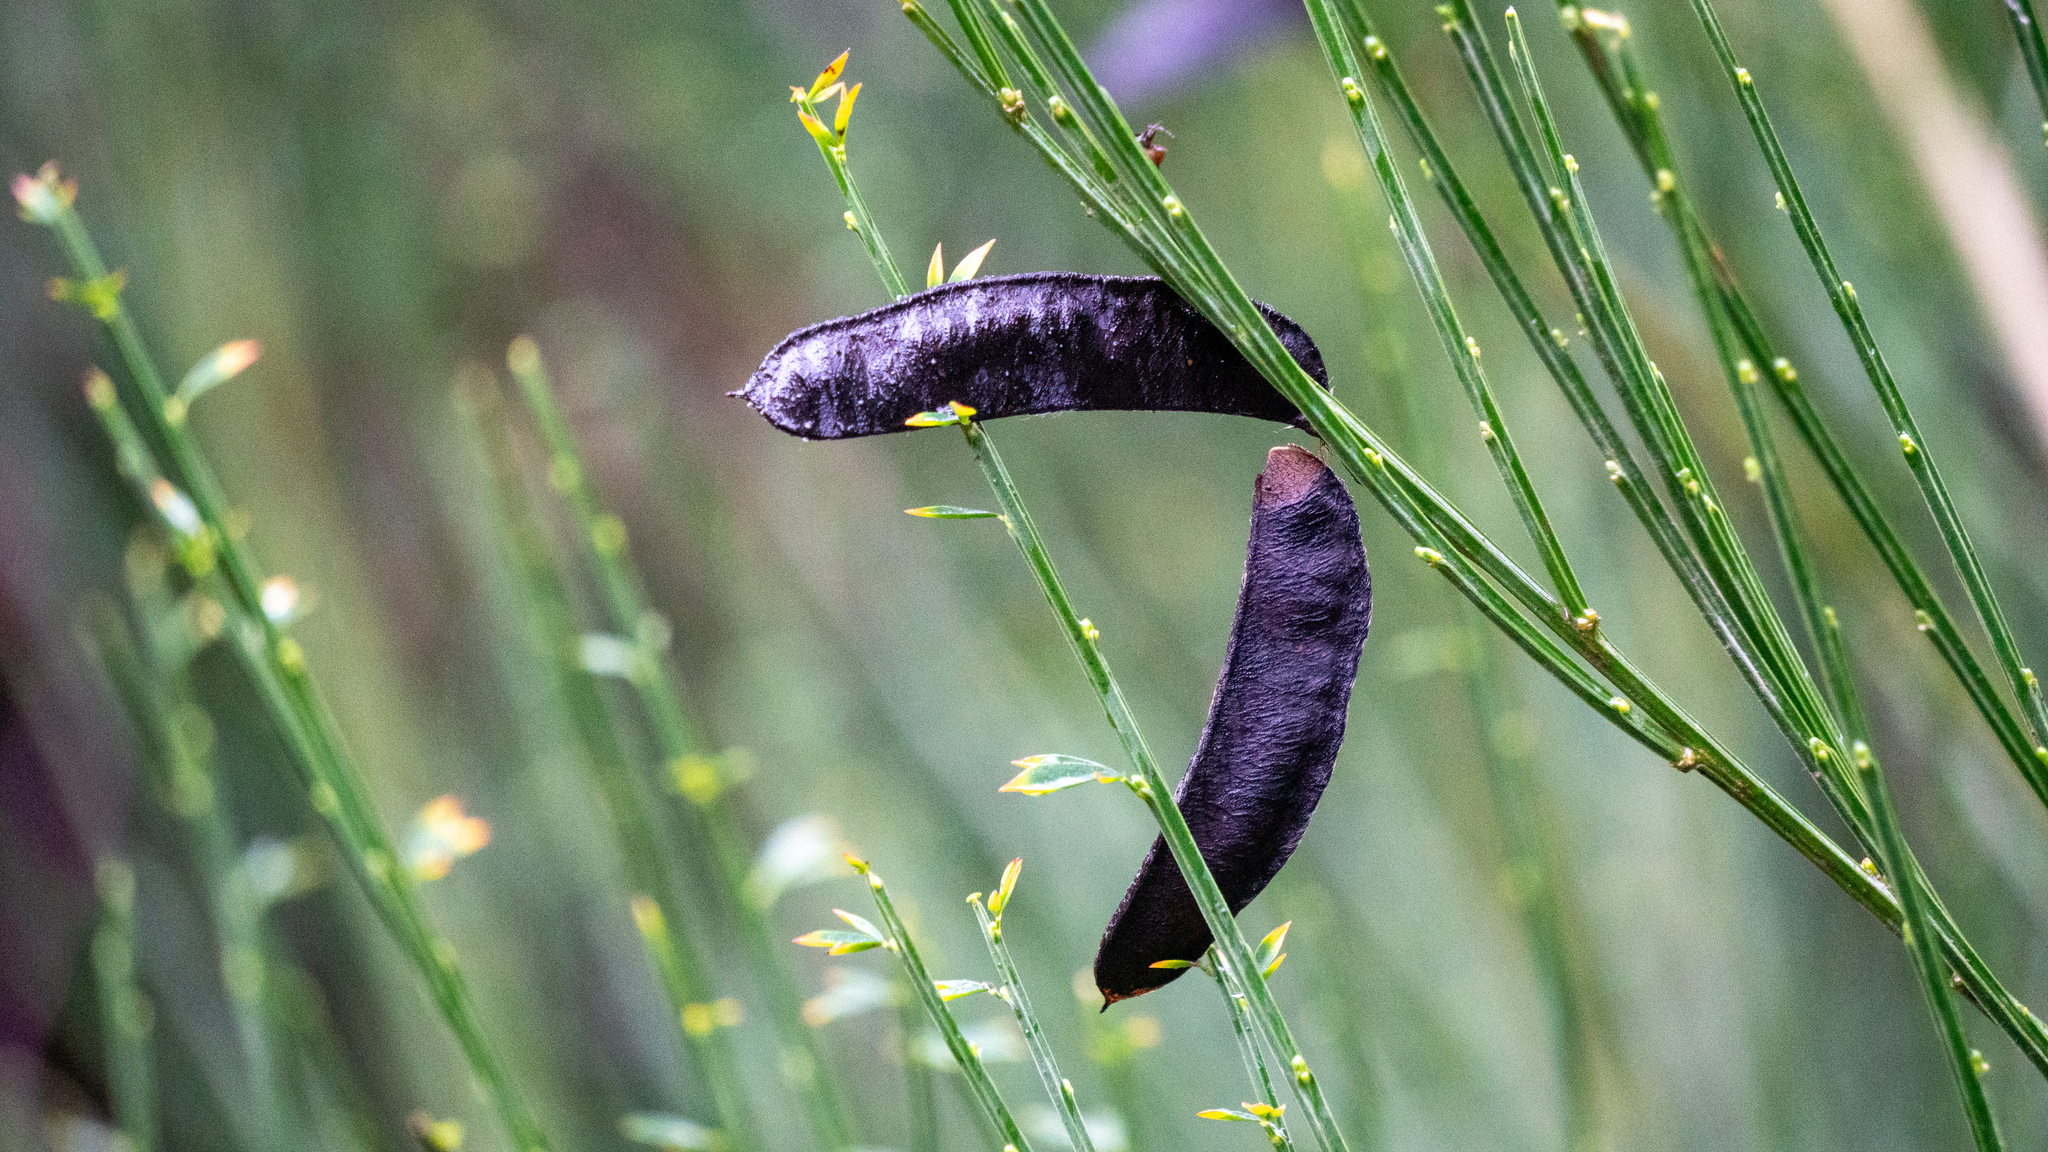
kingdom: Plantae
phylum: Tracheophyta
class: Magnoliopsida
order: Fabales
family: Fabaceae
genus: Cytisus
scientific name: Cytisus scoparius
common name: Scotch broom
